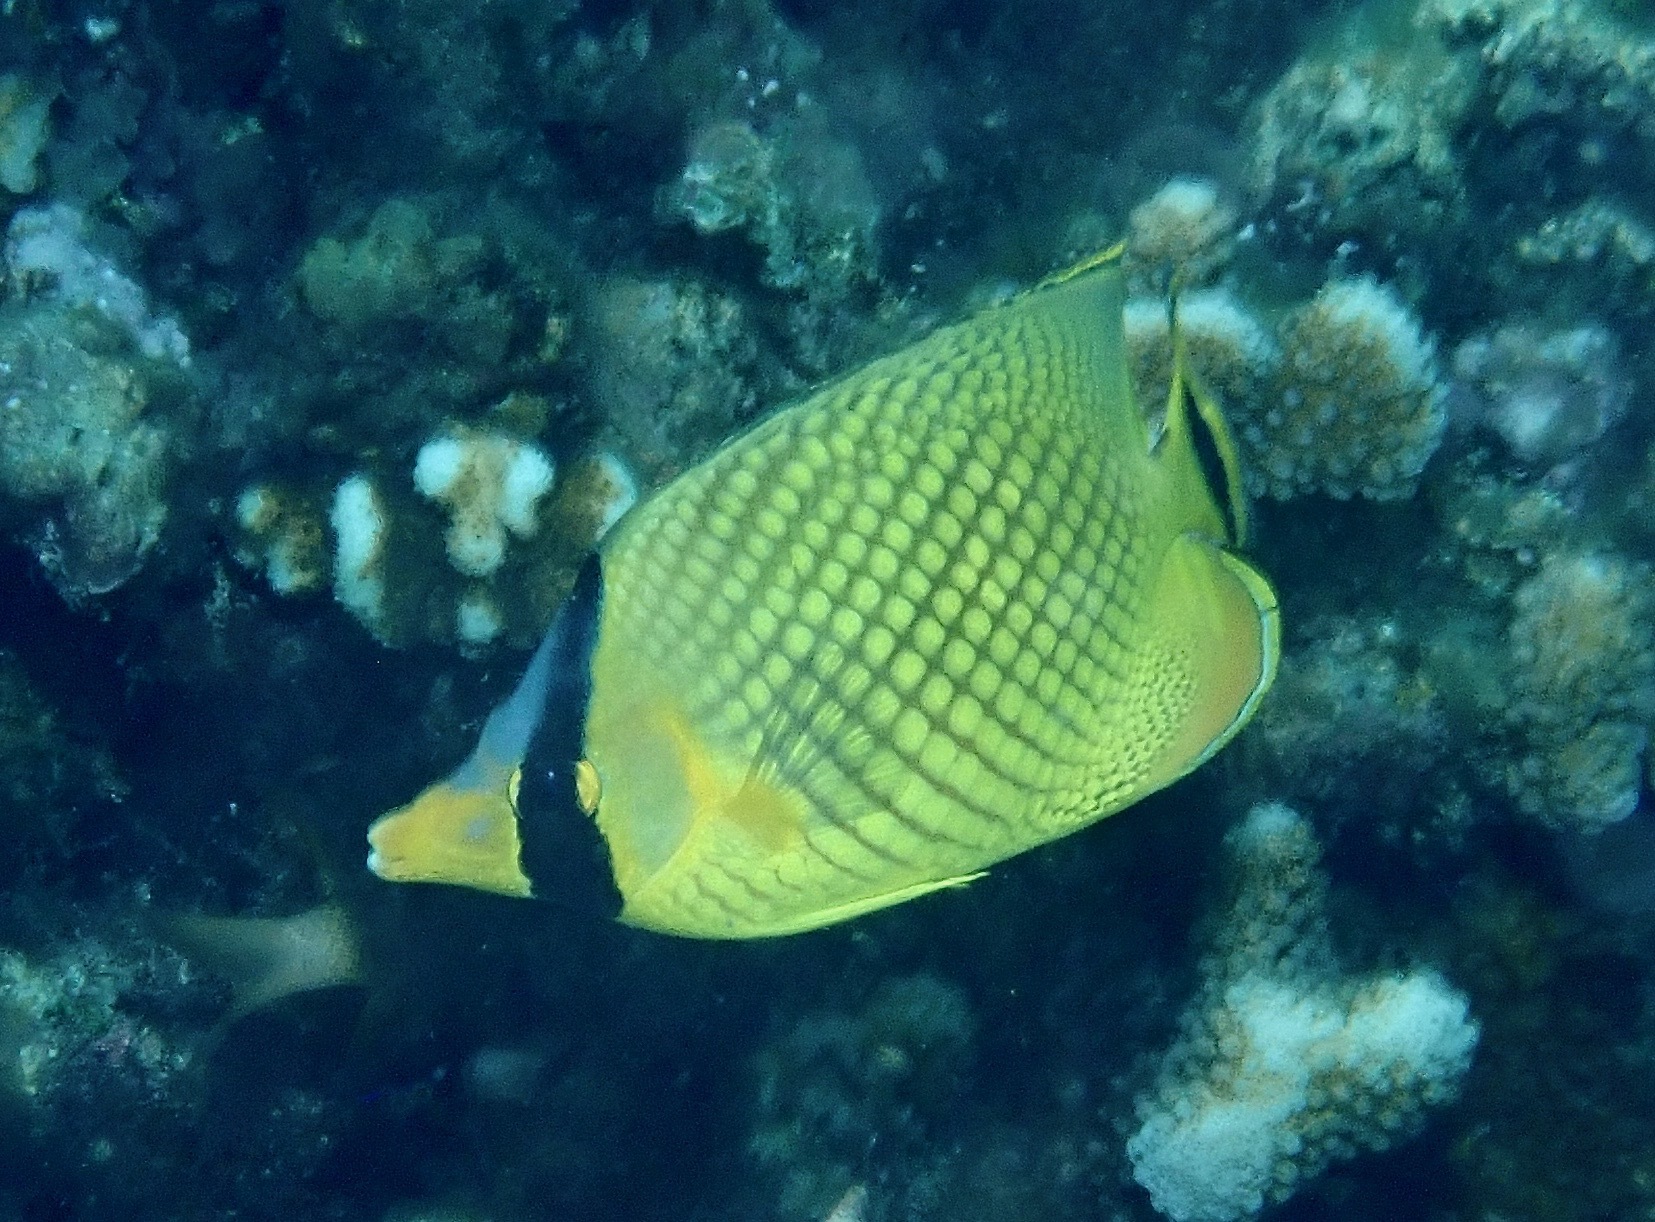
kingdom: Animalia
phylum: Chordata
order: Perciformes
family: Chaetodontidae
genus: Chaetodon
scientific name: Chaetodon rafflesii
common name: Latticed butterflyfish
